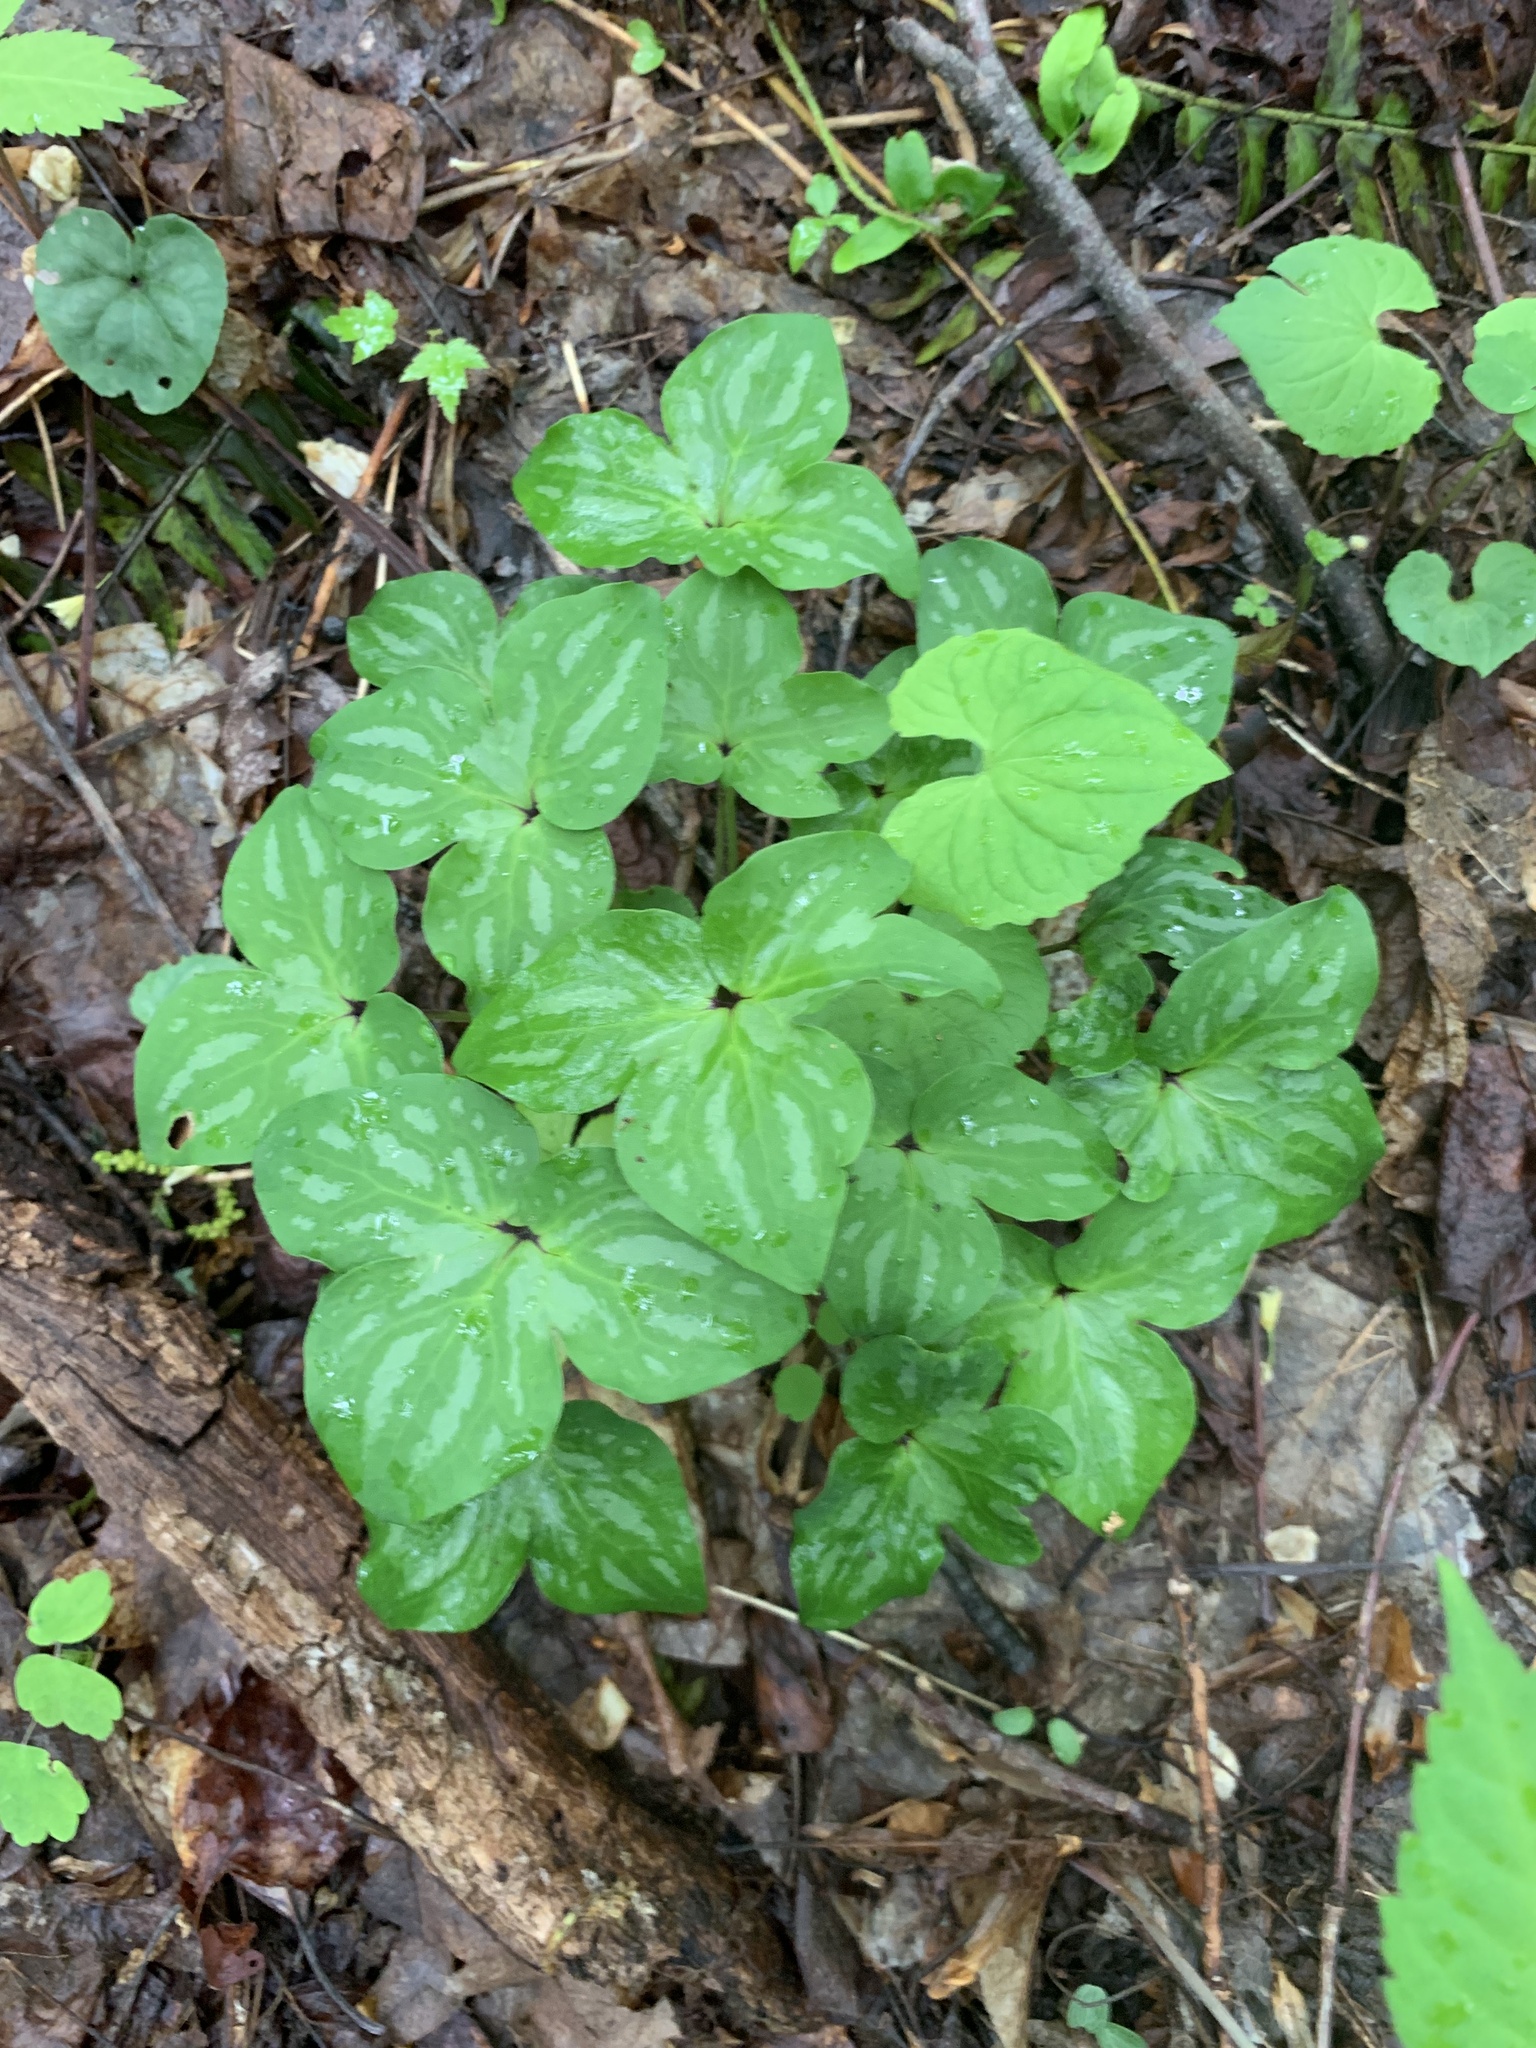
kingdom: Plantae
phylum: Tracheophyta
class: Magnoliopsida
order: Ranunculales
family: Ranunculaceae
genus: Hepatica
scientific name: Hepatica acutiloba
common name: Sharp-lobed hepatica
